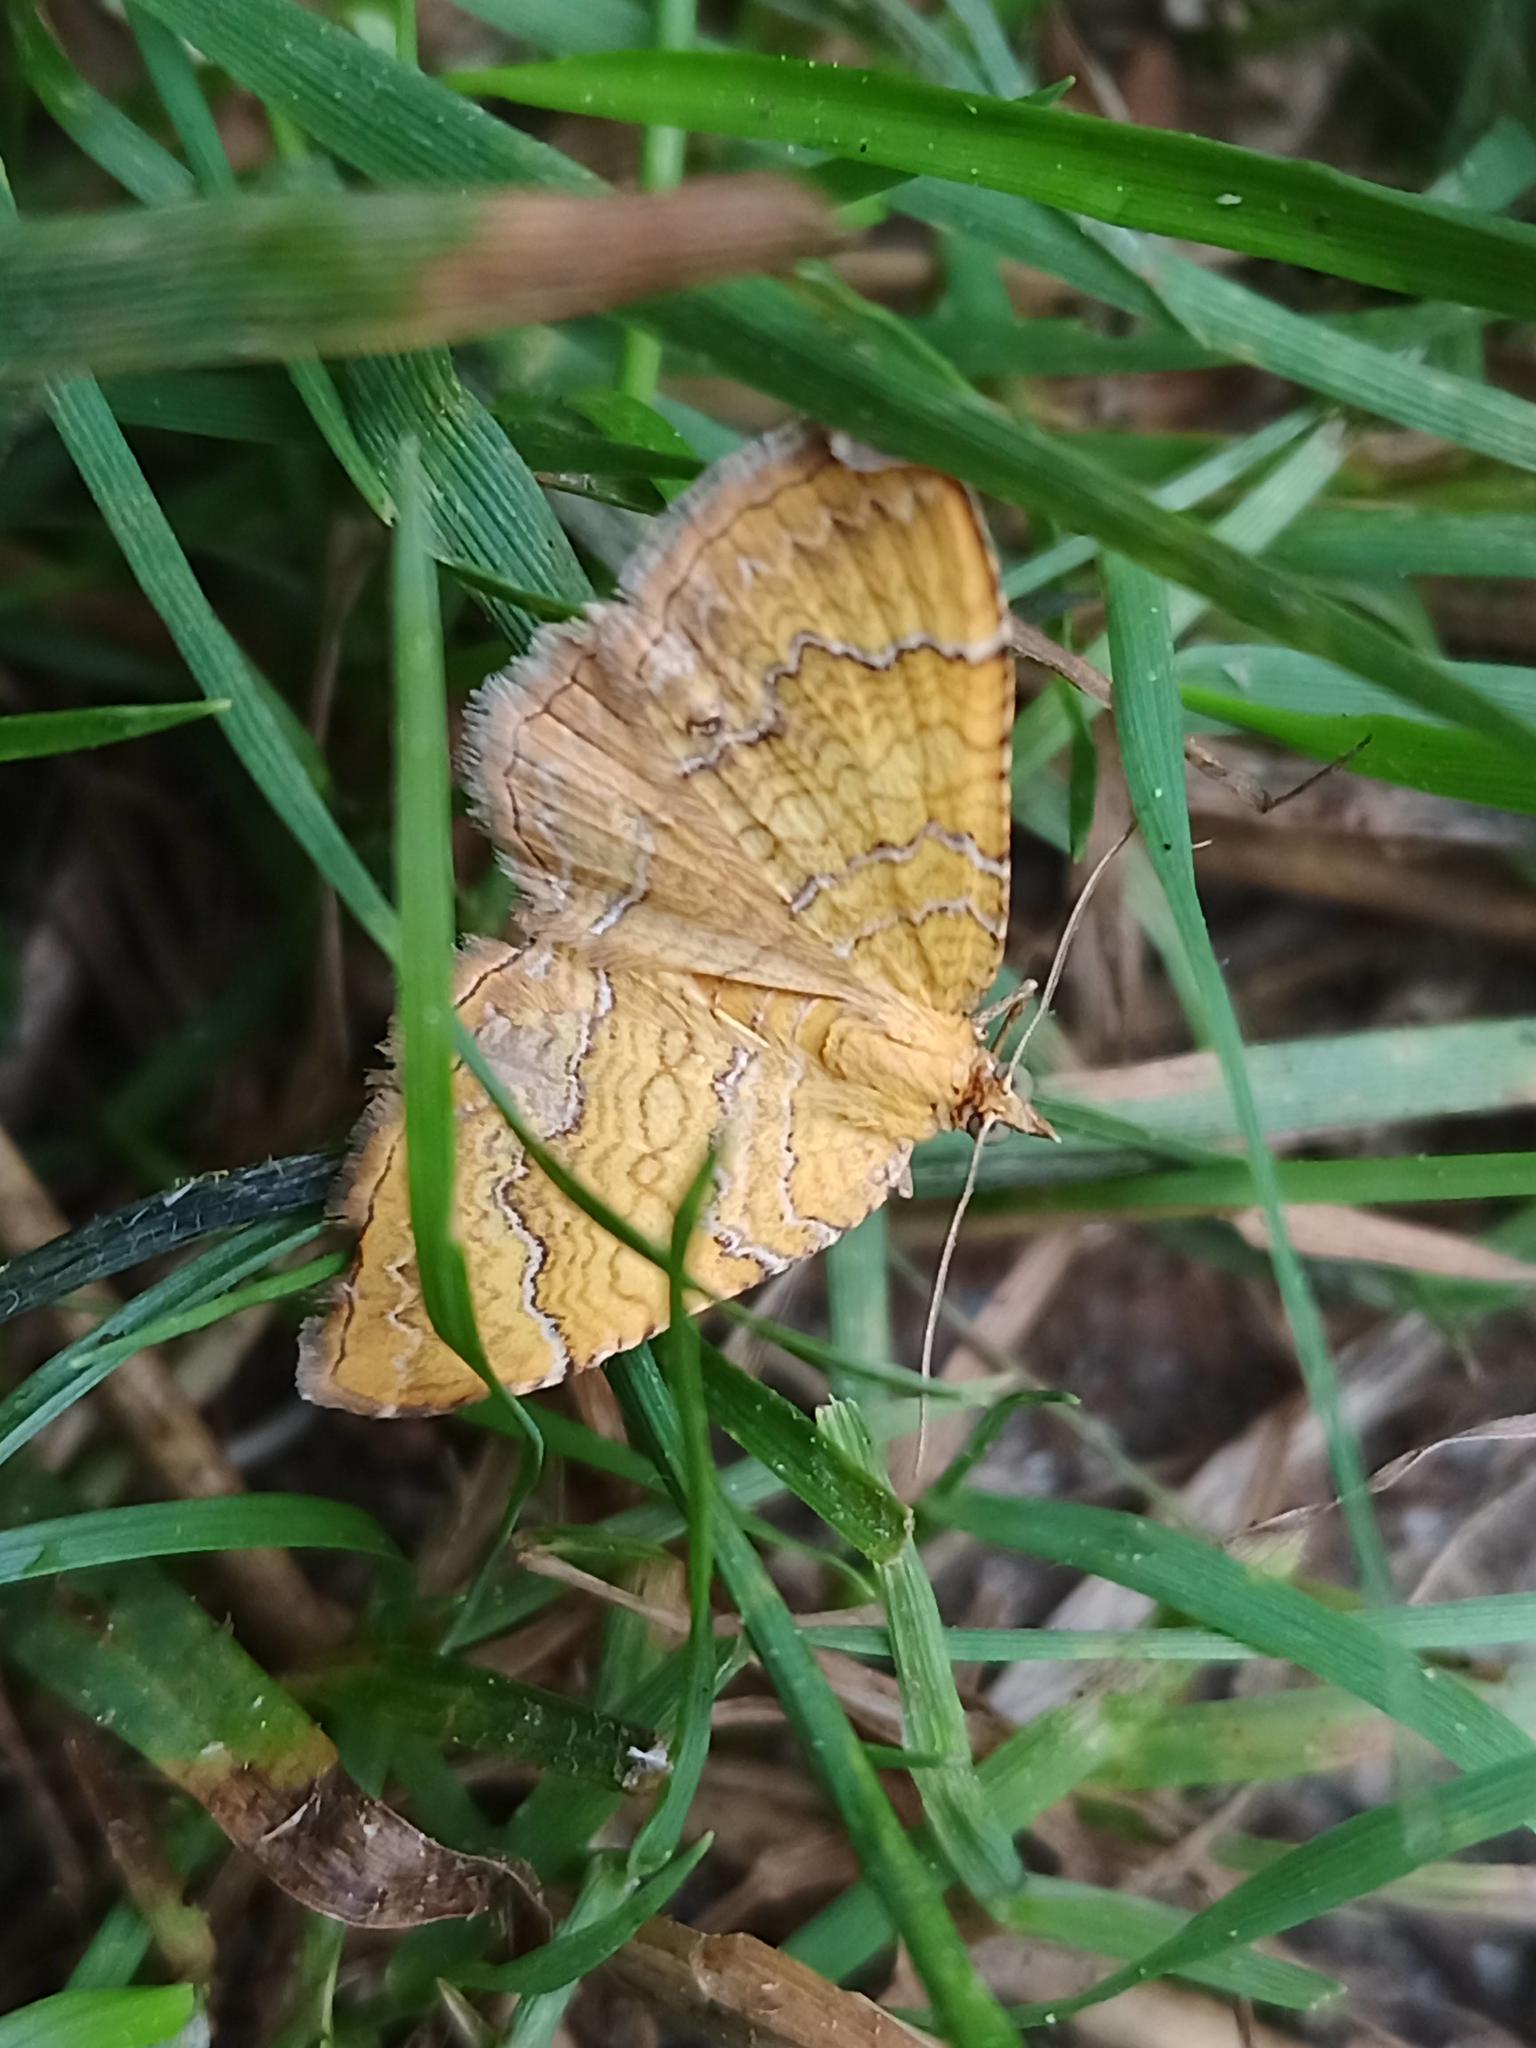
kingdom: Animalia
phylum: Arthropoda
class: Insecta
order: Lepidoptera
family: Geometridae
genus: Camptogramma
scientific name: Camptogramma bilineata
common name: Yellow shell
